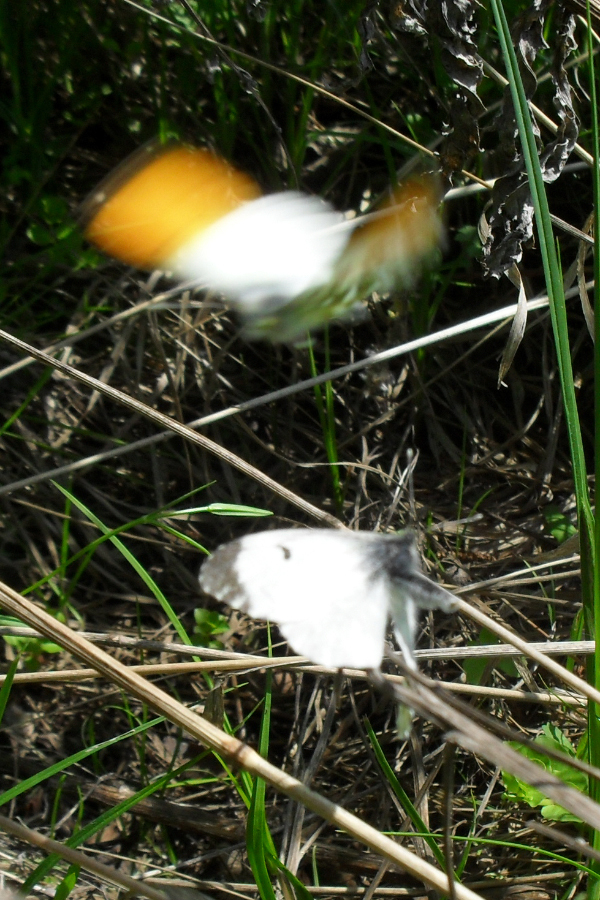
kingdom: Animalia
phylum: Arthropoda
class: Insecta
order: Lepidoptera
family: Pieridae
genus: Anthocharis
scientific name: Anthocharis cardamines
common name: Orange-tip
